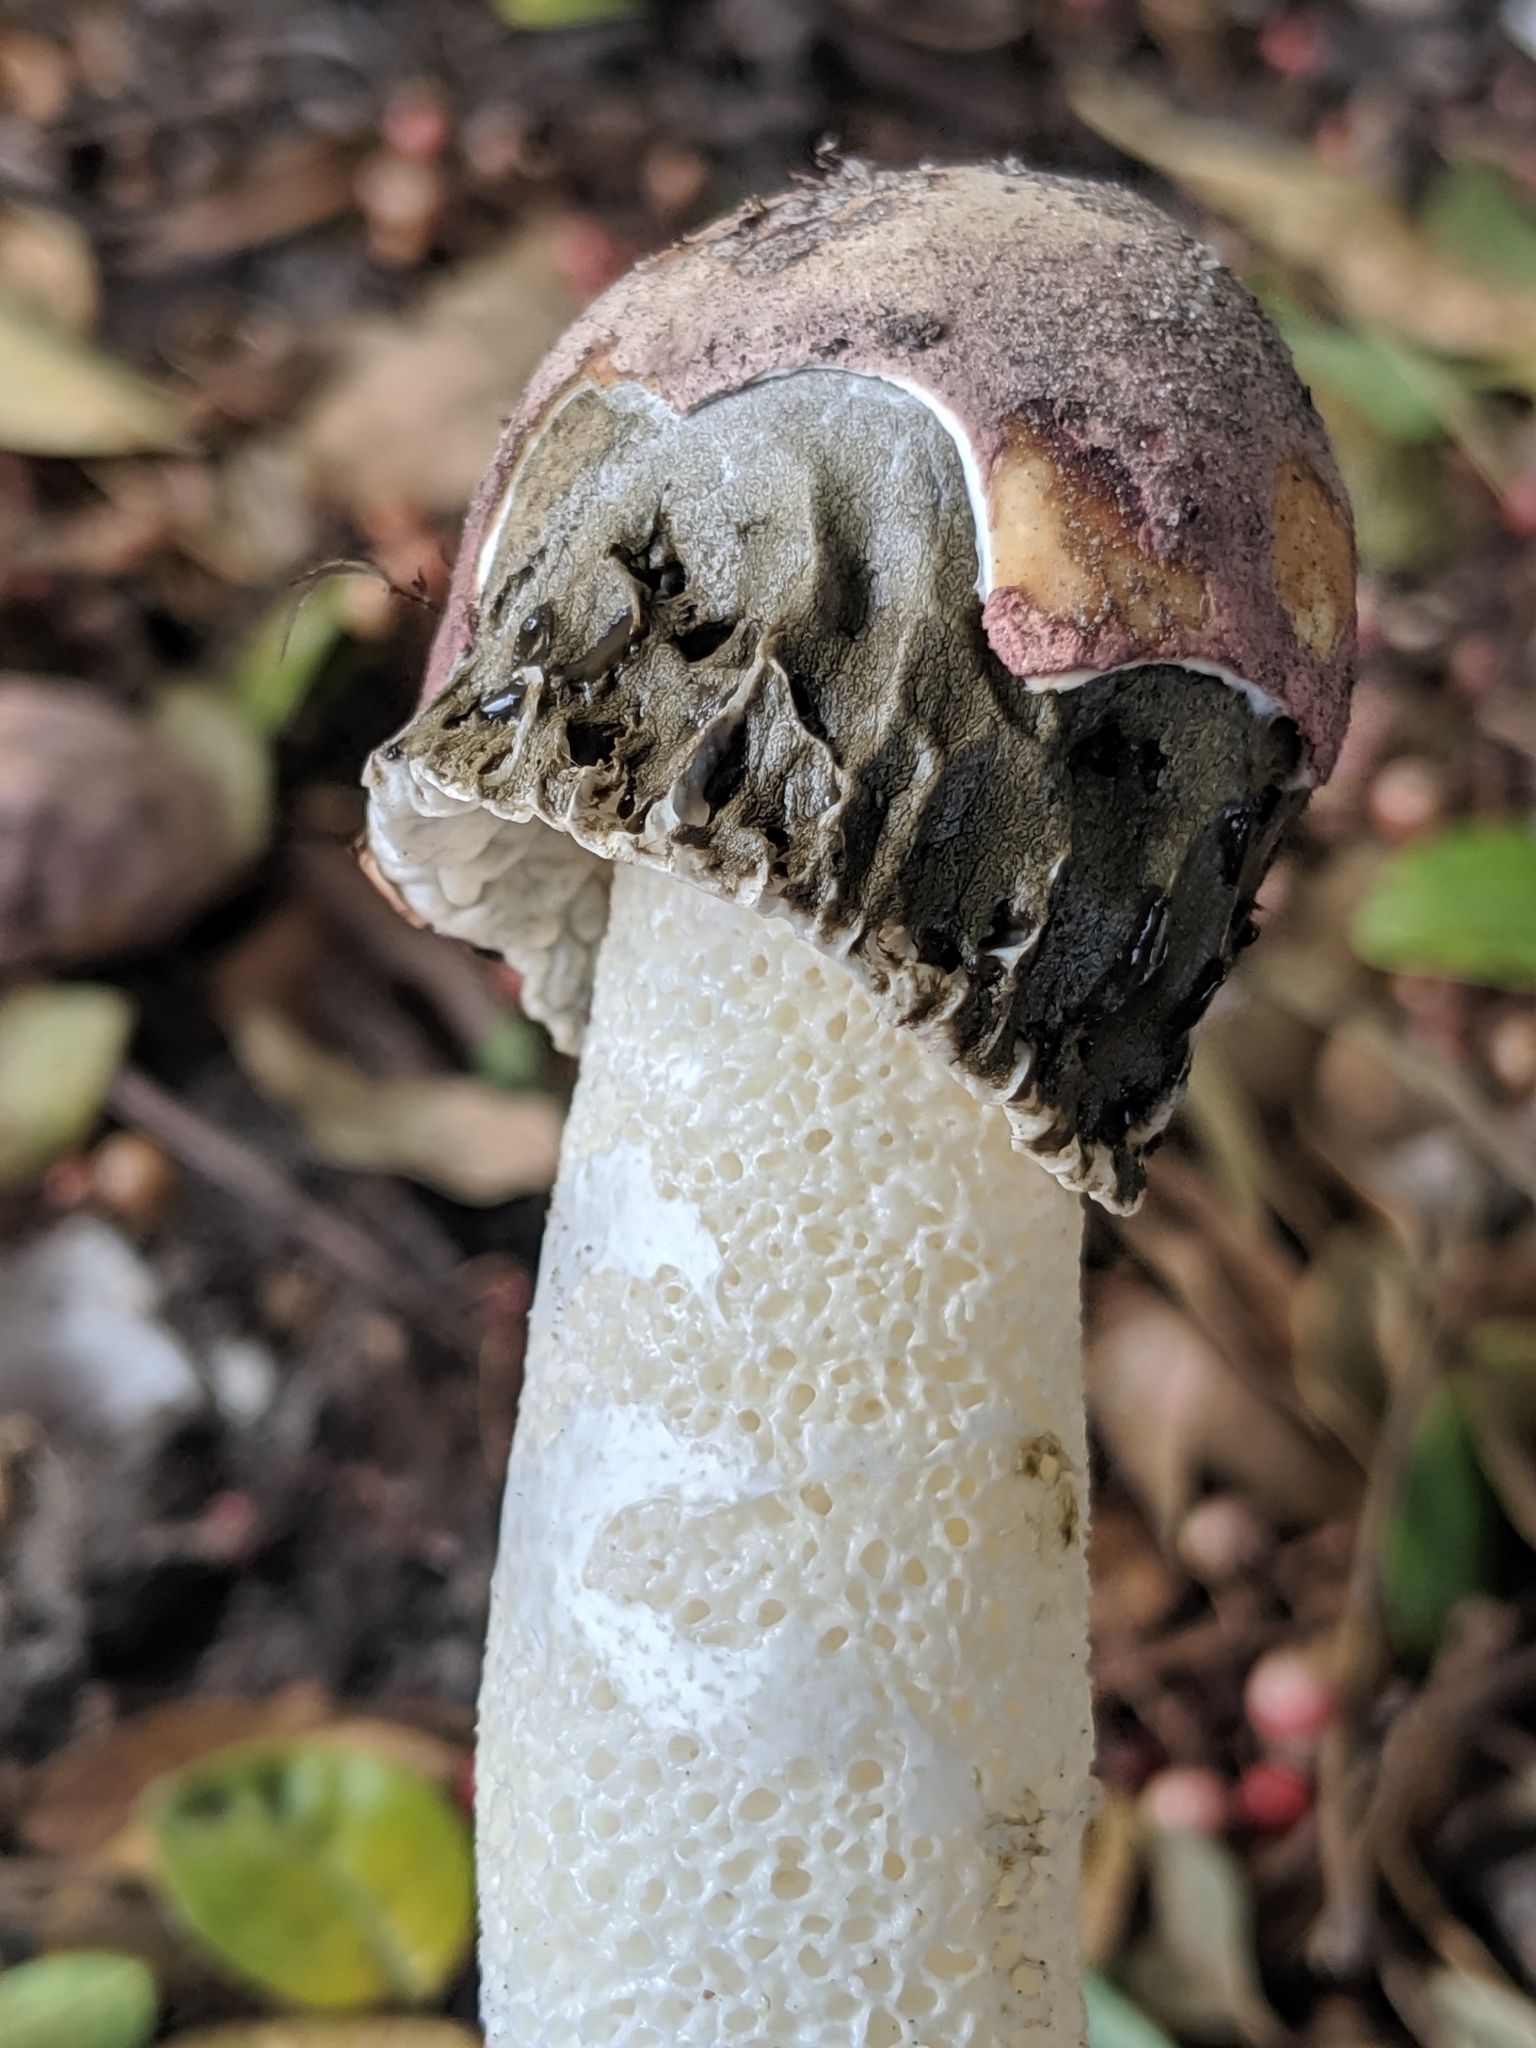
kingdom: Fungi
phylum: Basidiomycota
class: Agaricomycetes
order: Phallales
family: Phallaceae
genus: Phallus
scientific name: Phallus hadriani
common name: Sand stinkhorn
